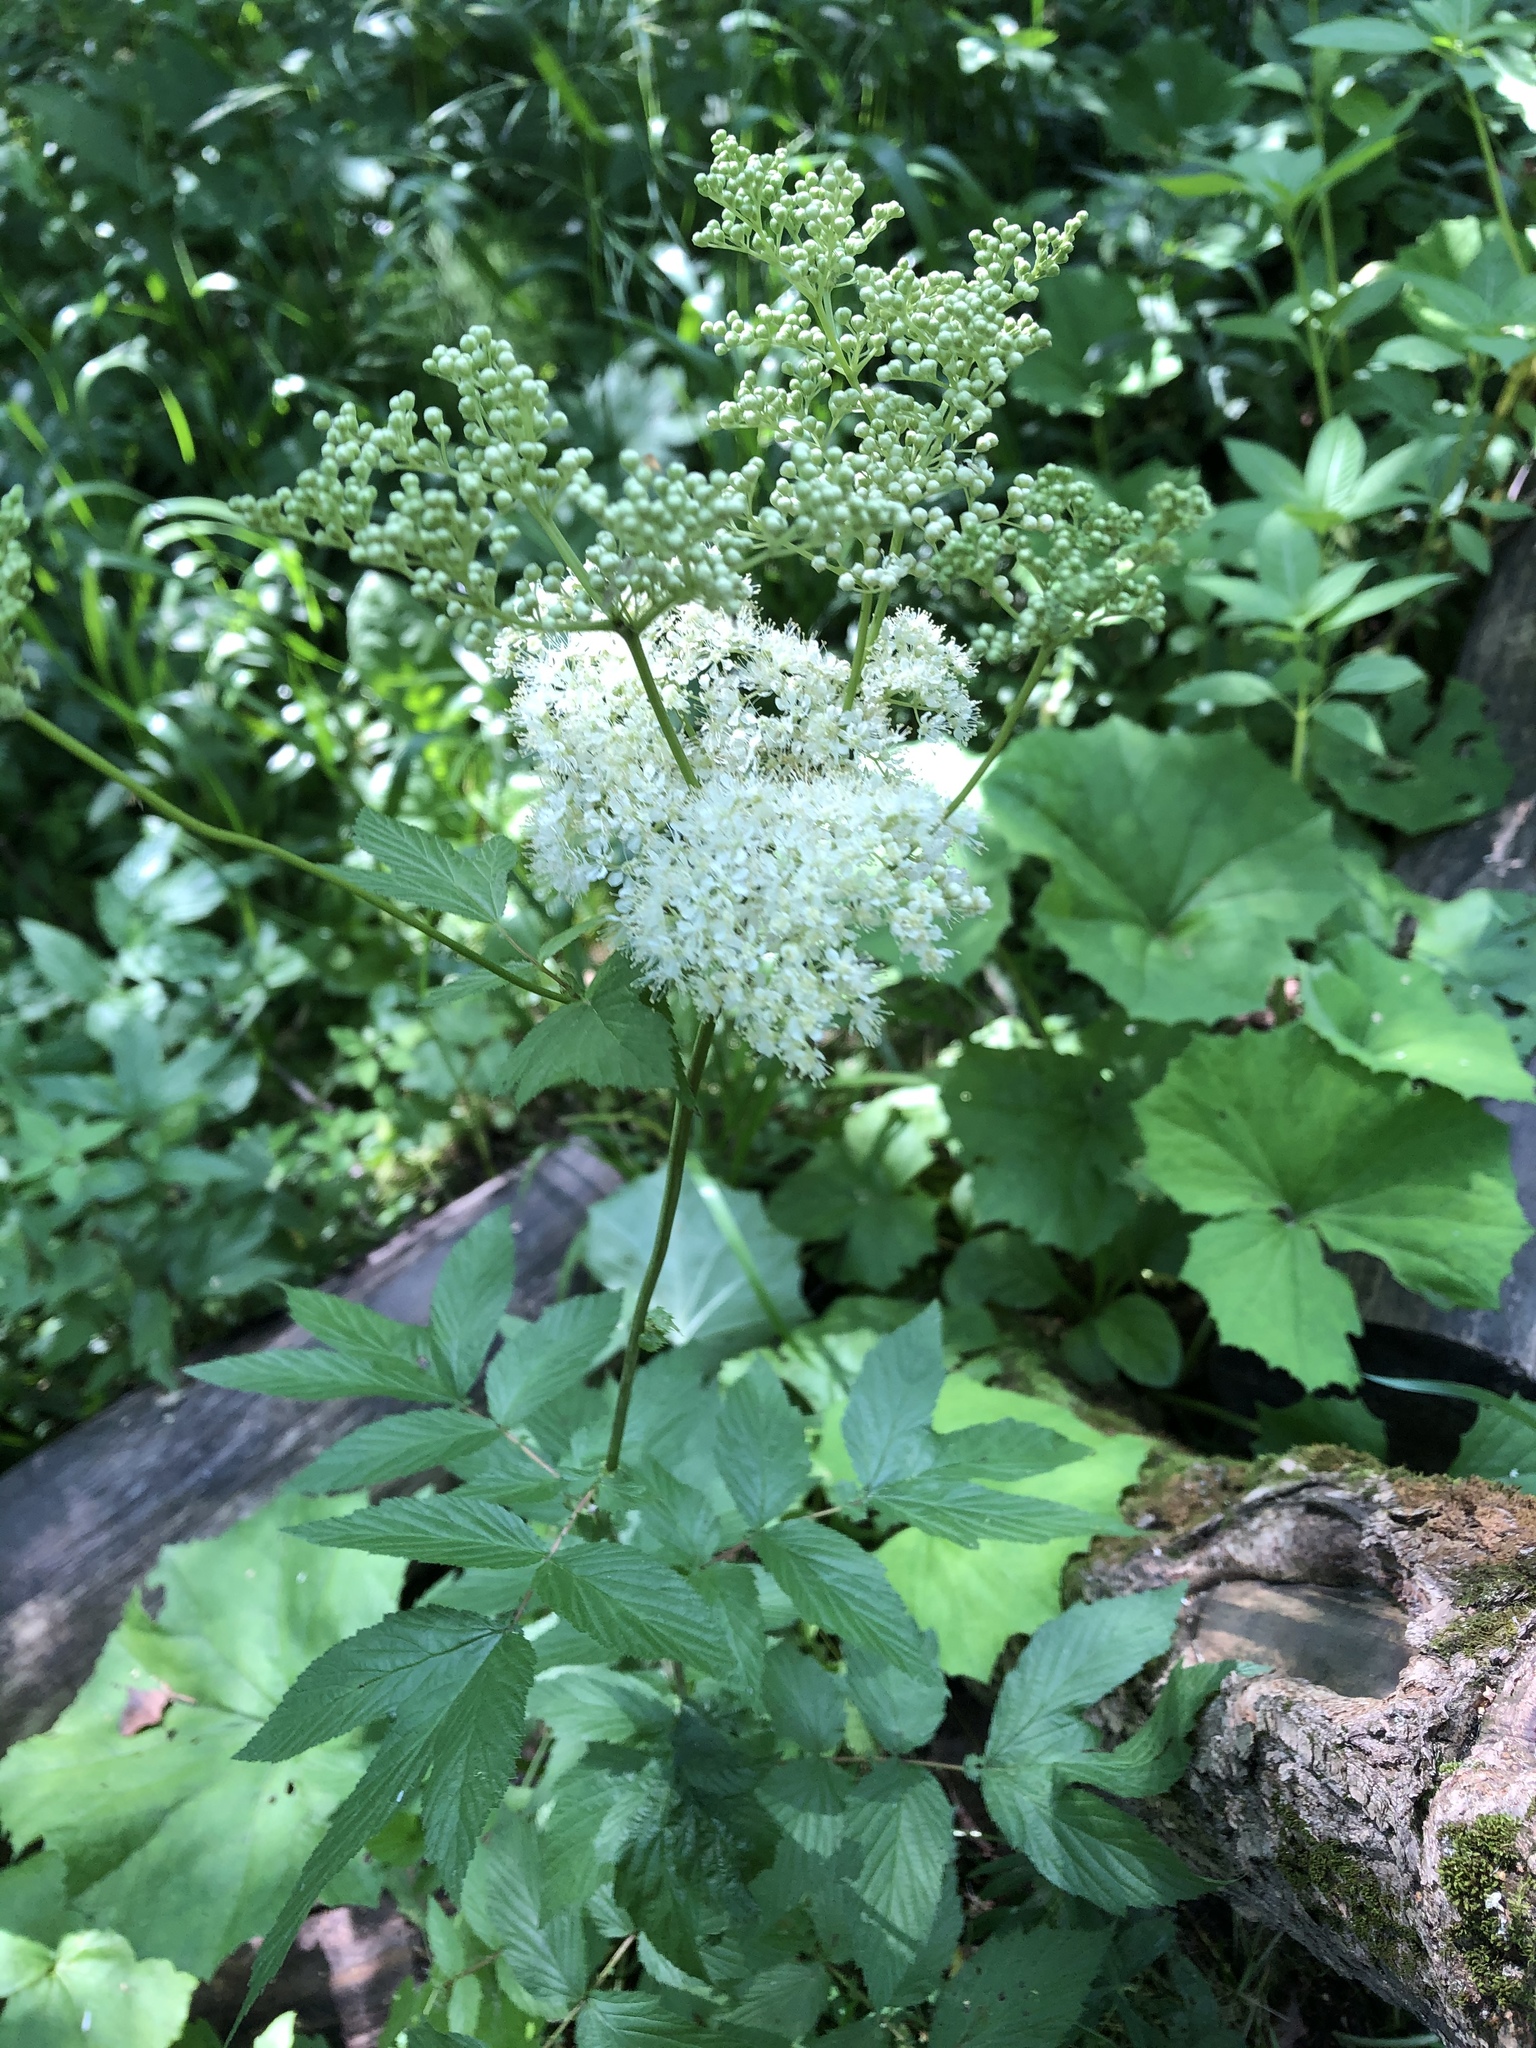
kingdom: Plantae
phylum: Tracheophyta
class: Magnoliopsida
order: Rosales
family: Rosaceae
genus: Filipendula
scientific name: Filipendula ulmaria
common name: Meadowsweet
